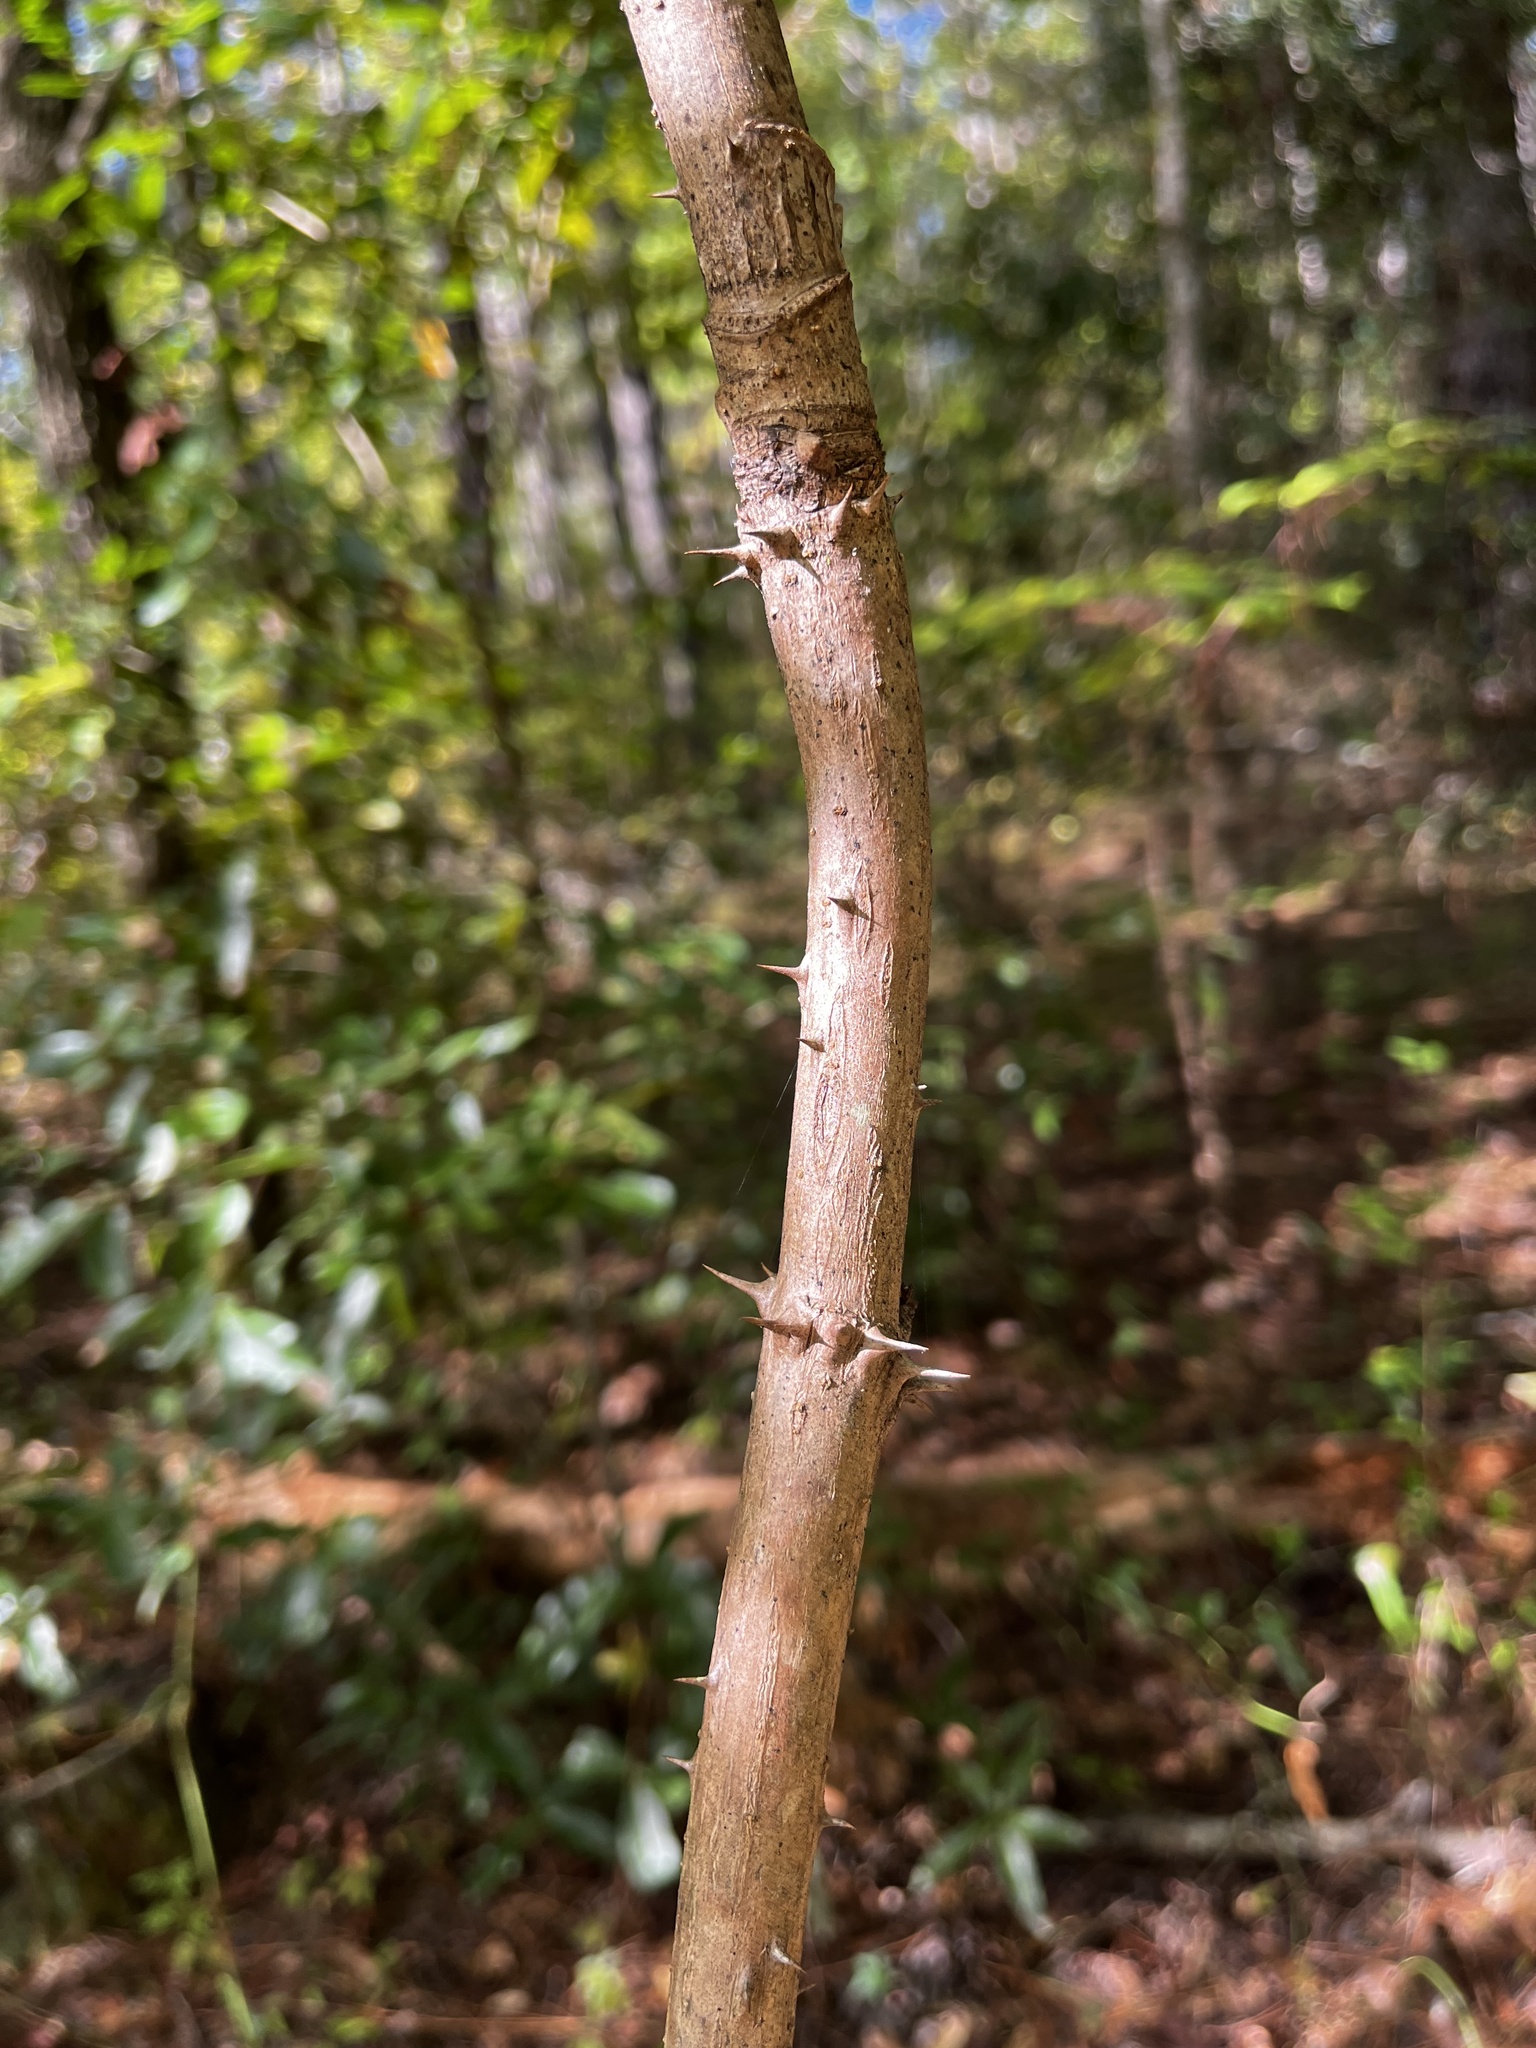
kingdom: Plantae
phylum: Tracheophyta
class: Magnoliopsida
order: Apiales
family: Araliaceae
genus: Aralia
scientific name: Aralia spinosa
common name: Hercules'-club
